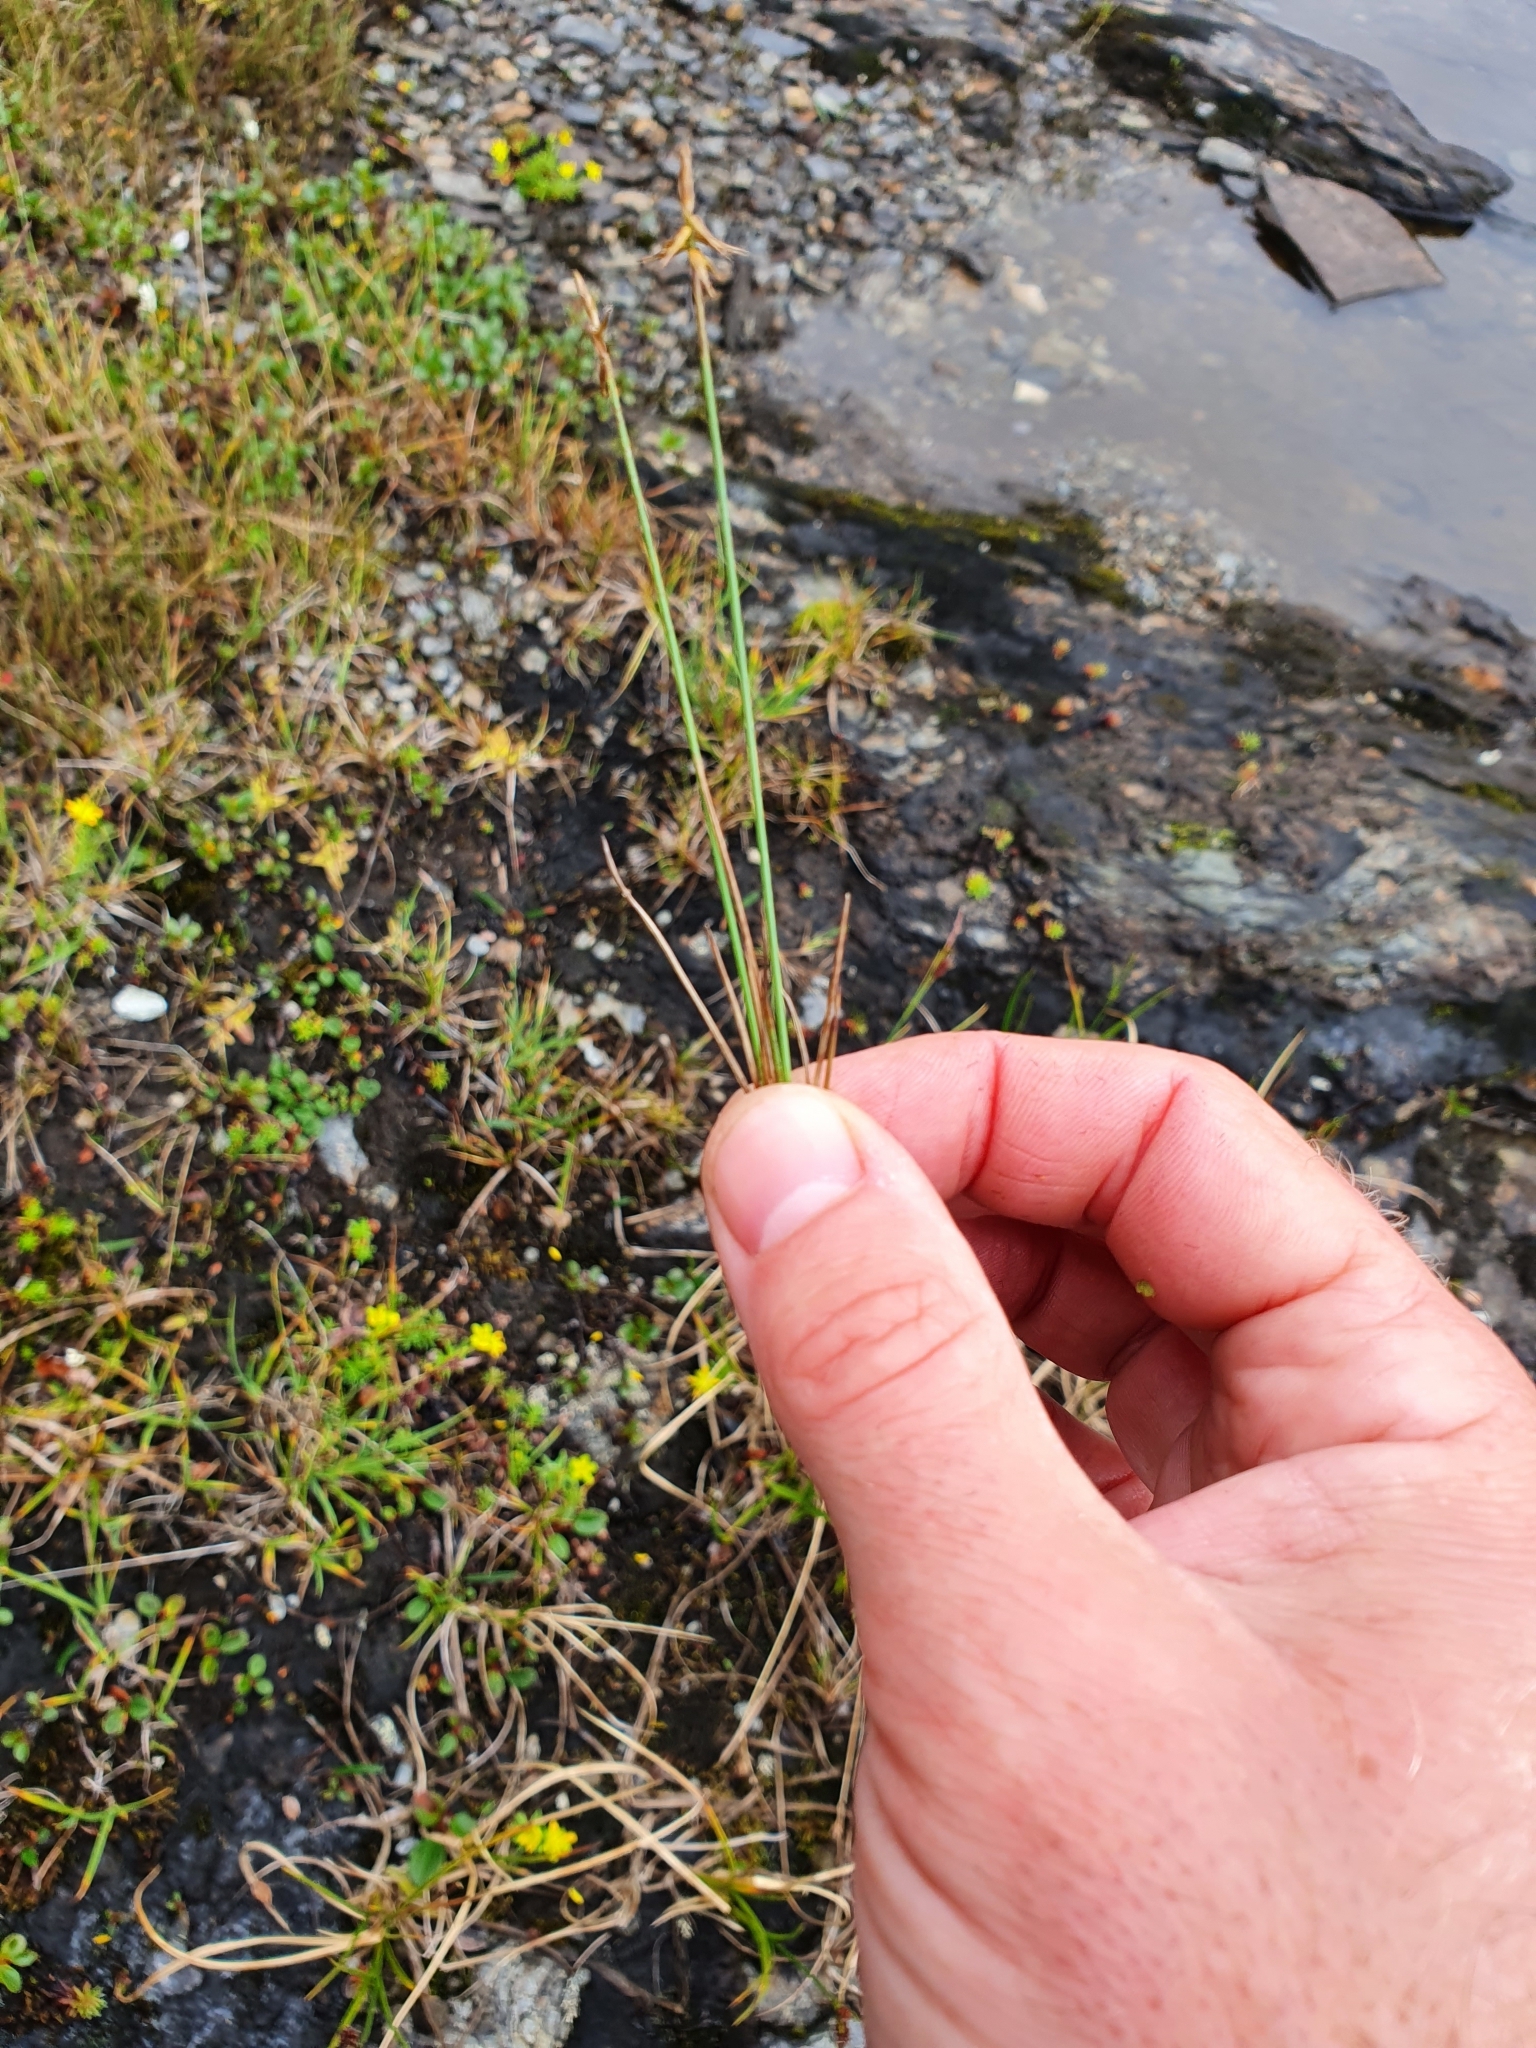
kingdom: Plantae
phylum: Tracheophyta
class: Liliopsida
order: Poales
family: Cyperaceae
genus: Carex
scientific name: Carex microglochin
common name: Bristle sedge
